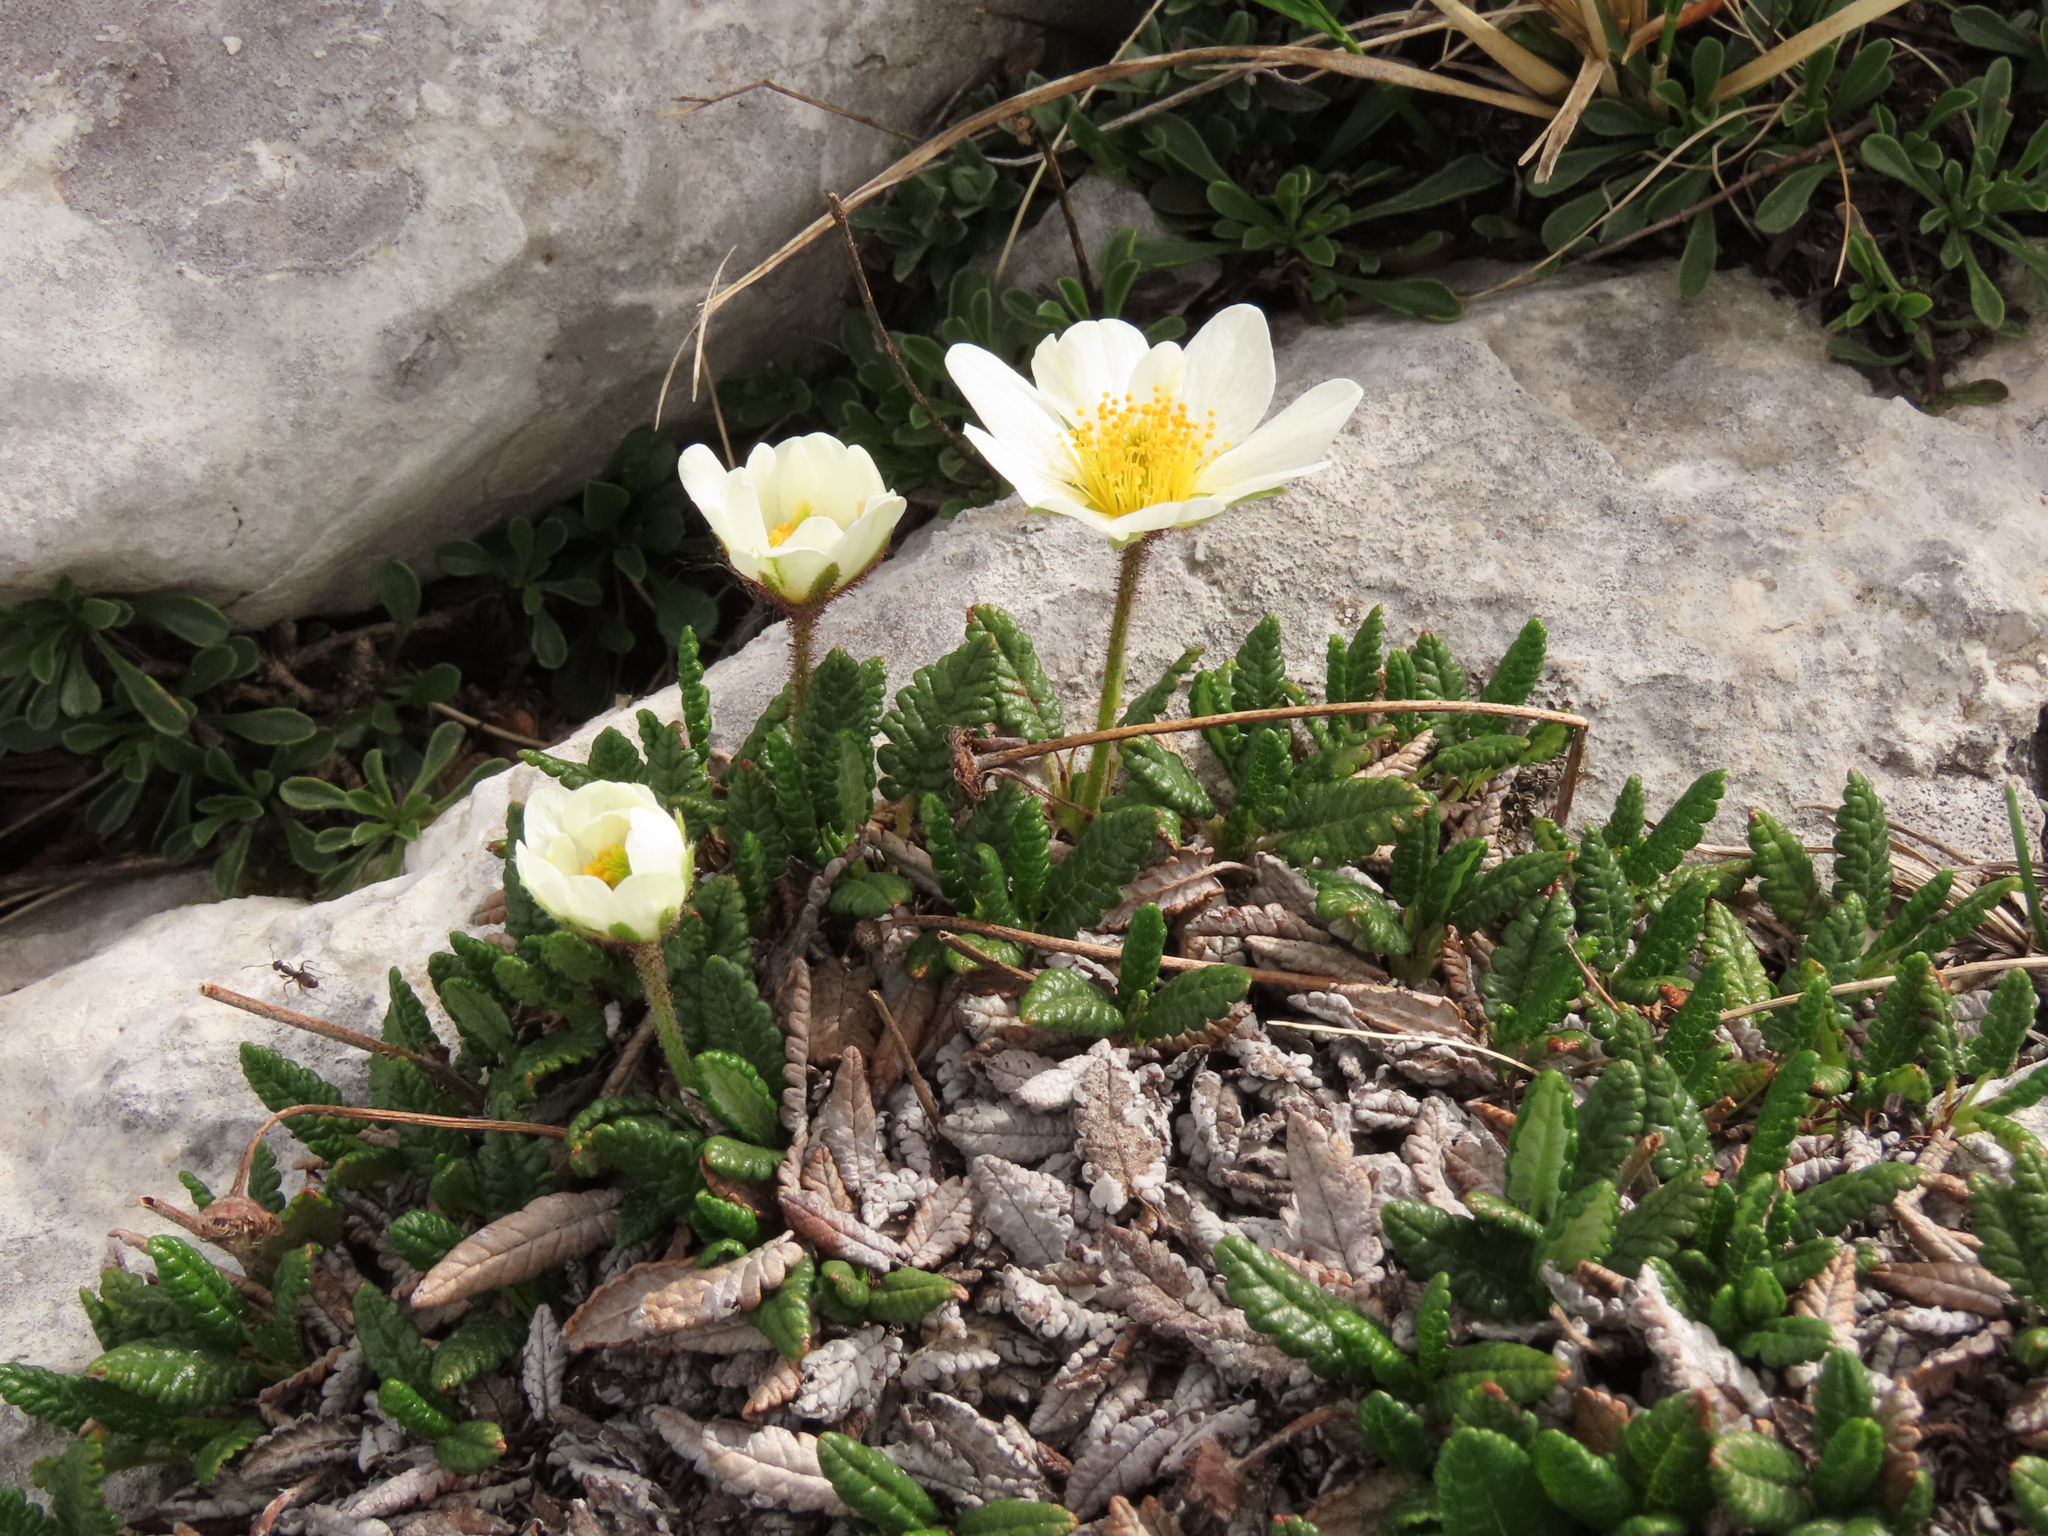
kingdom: Plantae
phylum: Tracheophyta
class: Magnoliopsida
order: Rosales
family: Rosaceae
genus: Dryas
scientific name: Dryas octopetala
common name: Eight-petal mountain-avens
